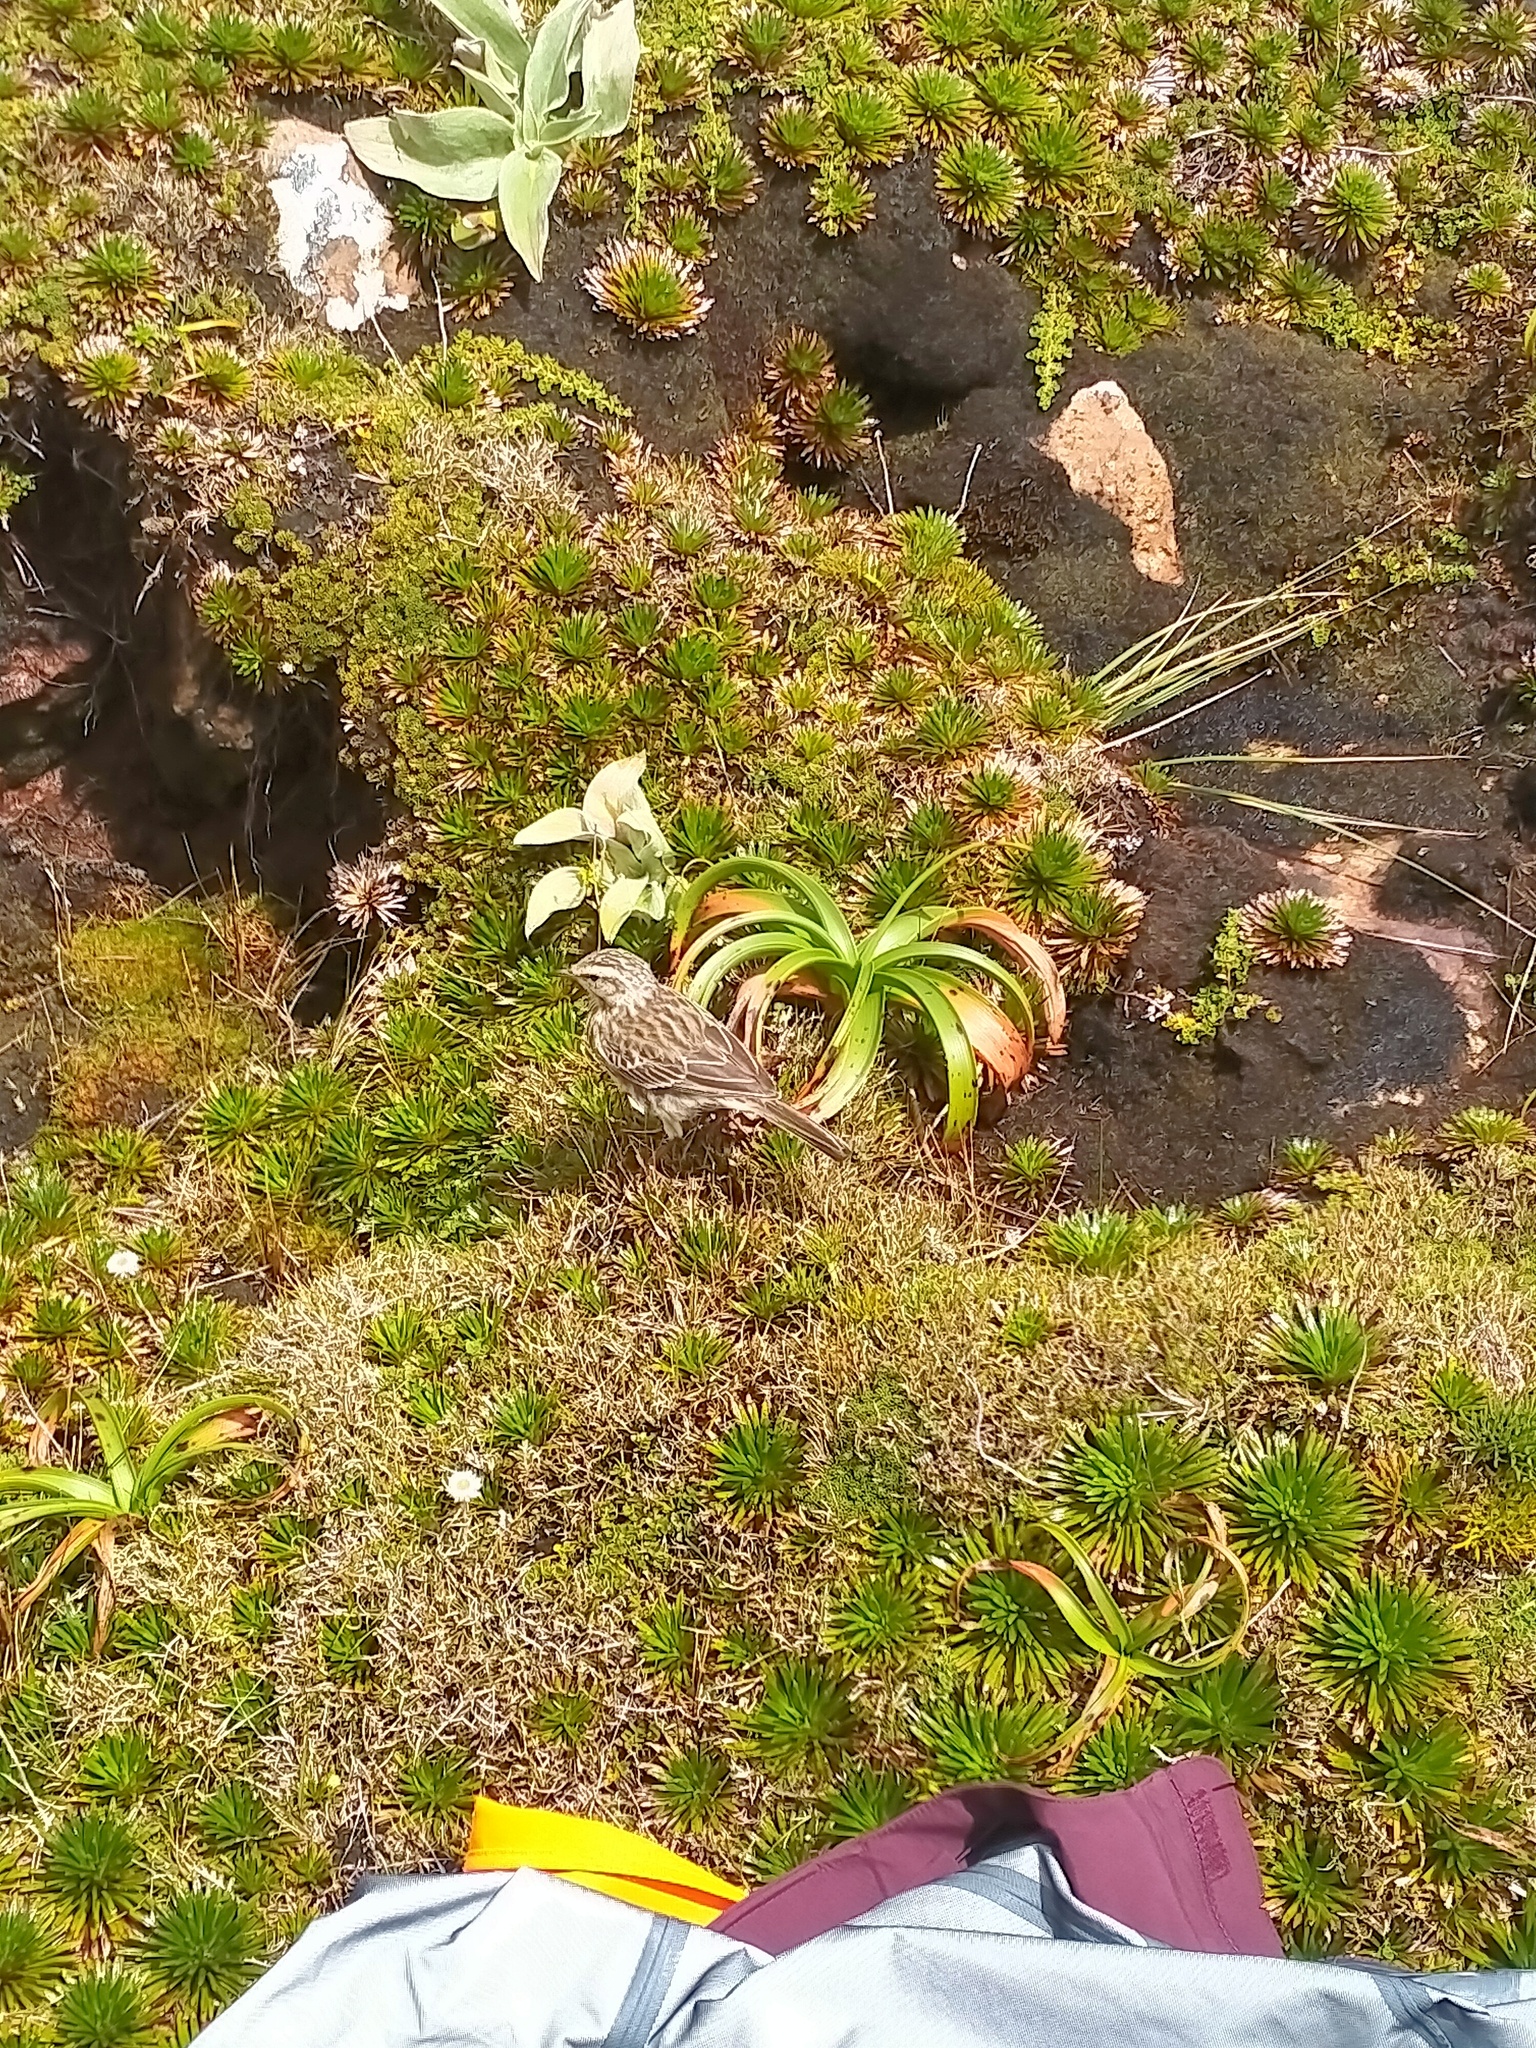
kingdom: Animalia
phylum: Chordata
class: Aves
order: Passeriformes
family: Motacillidae
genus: Anthus
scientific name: Anthus novaeseelandiae
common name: New zealand pipit
